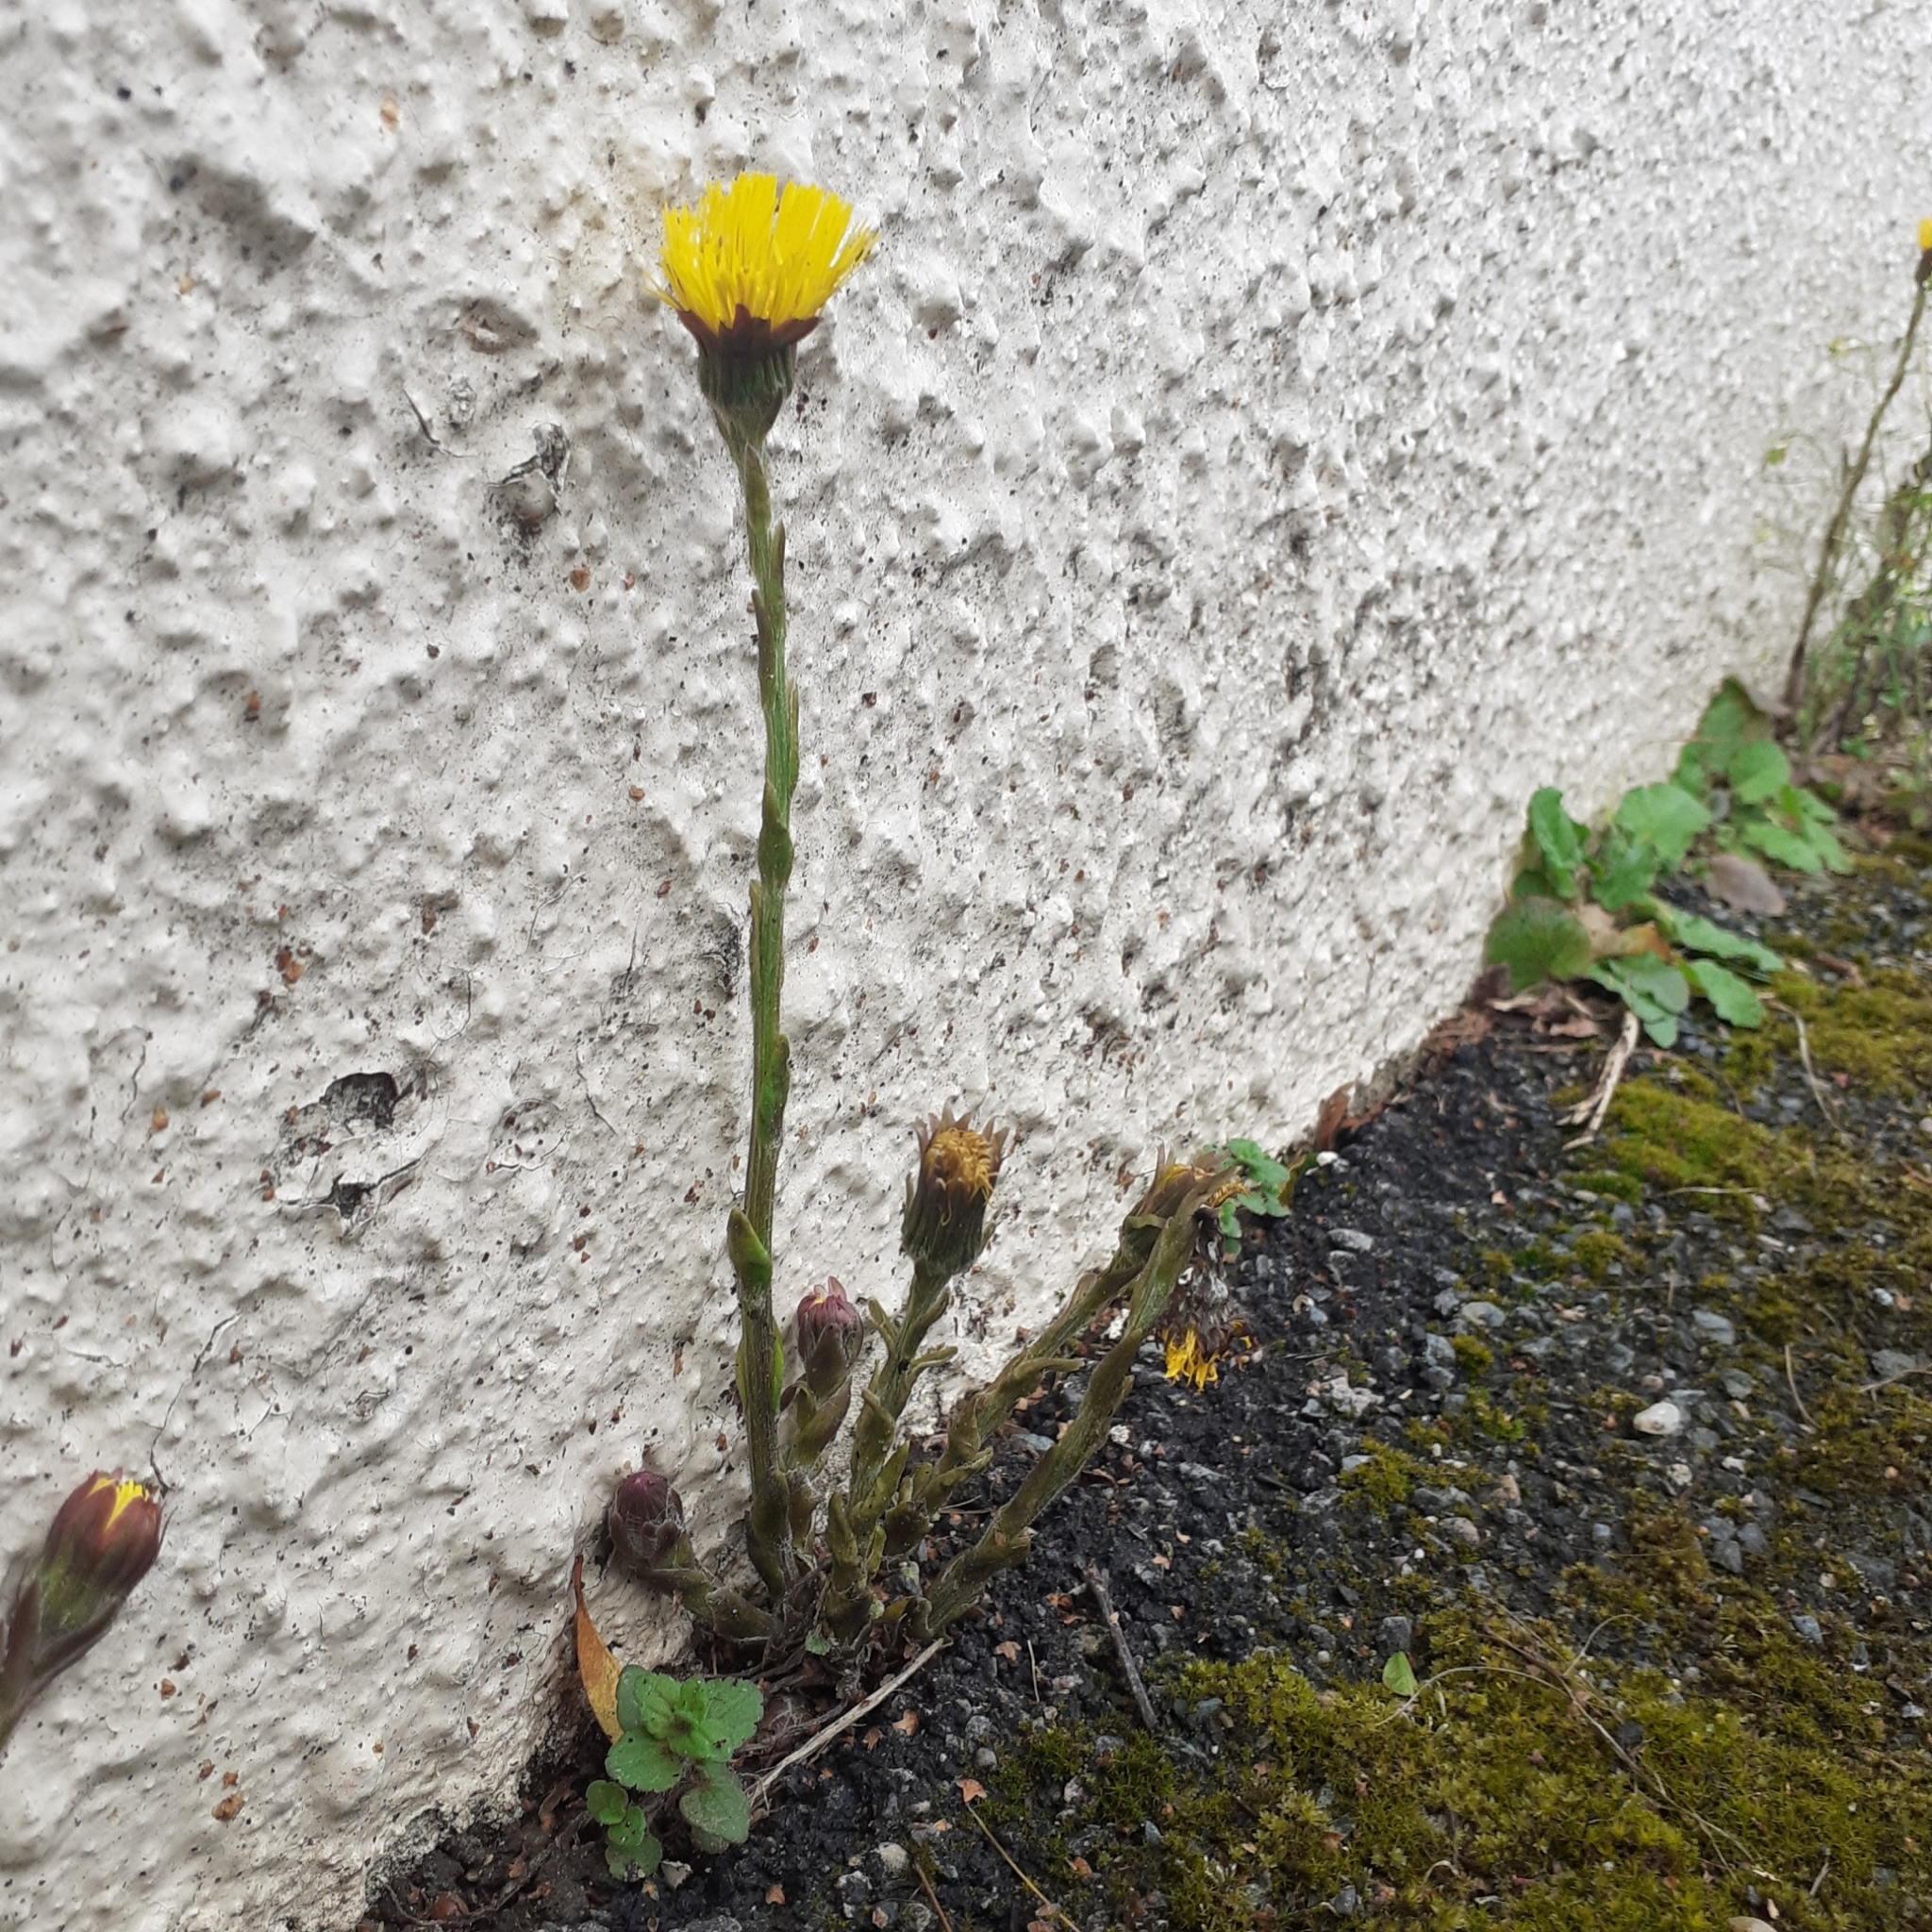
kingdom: Plantae
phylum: Tracheophyta
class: Magnoliopsida
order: Asterales
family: Asteraceae
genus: Tussilago
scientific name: Tussilago farfara
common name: Coltsfoot
